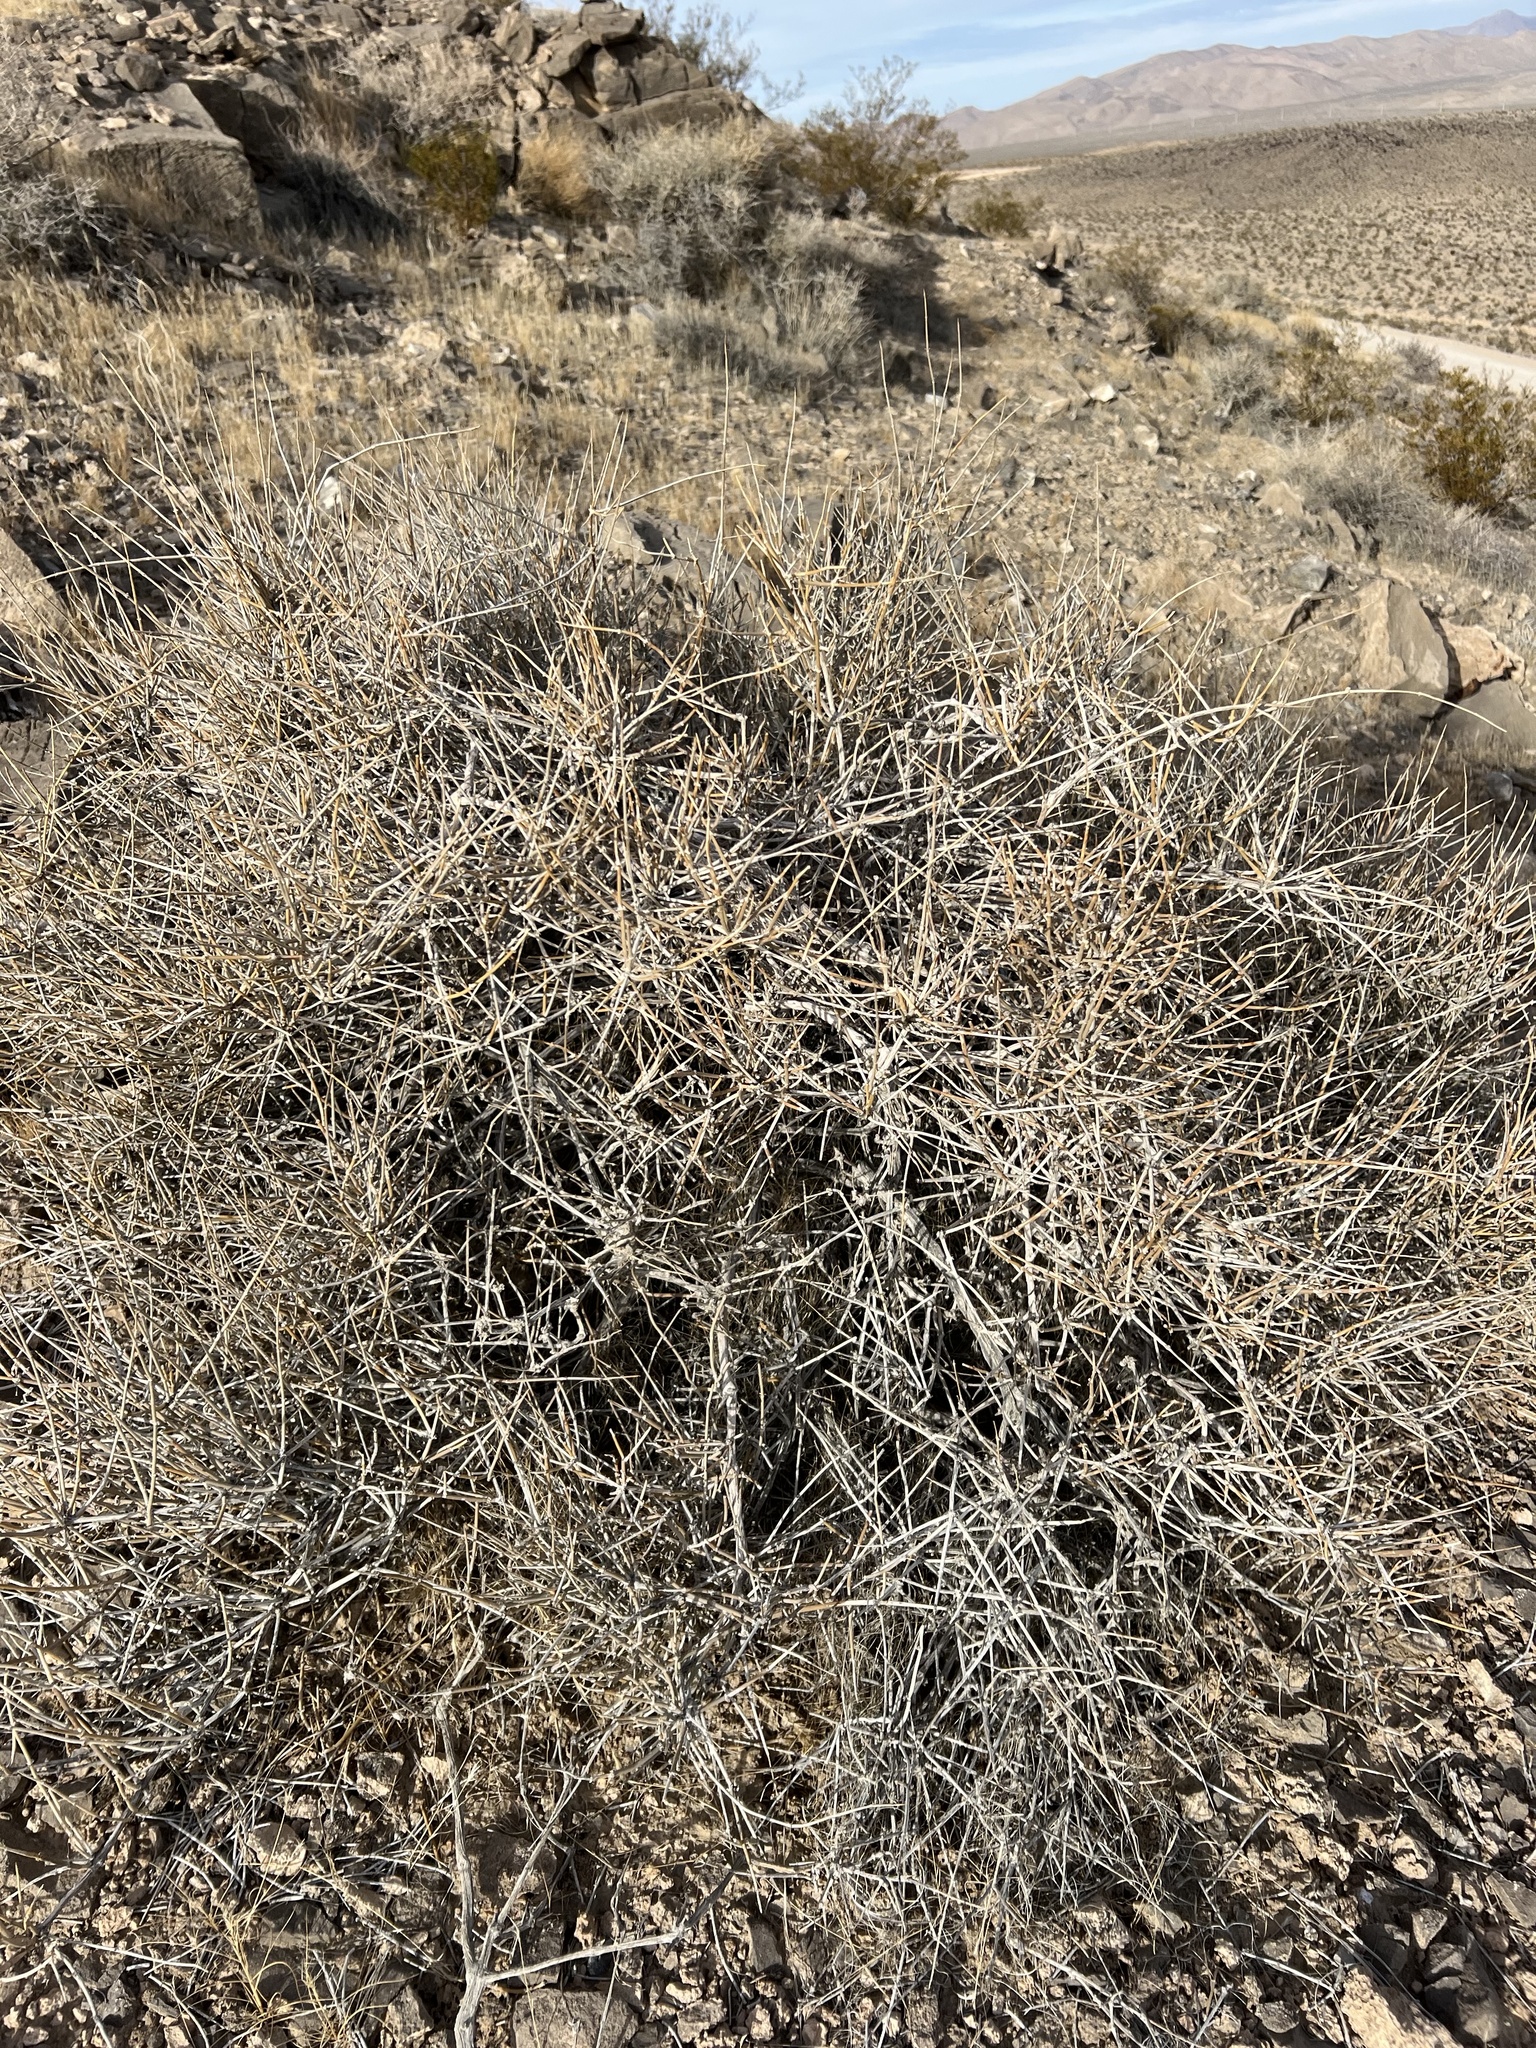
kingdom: Plantae
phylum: Tracheophyta
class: Gnetopsida
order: Ephedrales
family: Ephedraceae
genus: Ephedra
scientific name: Ephedra nevadensis
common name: Gray ephedra
